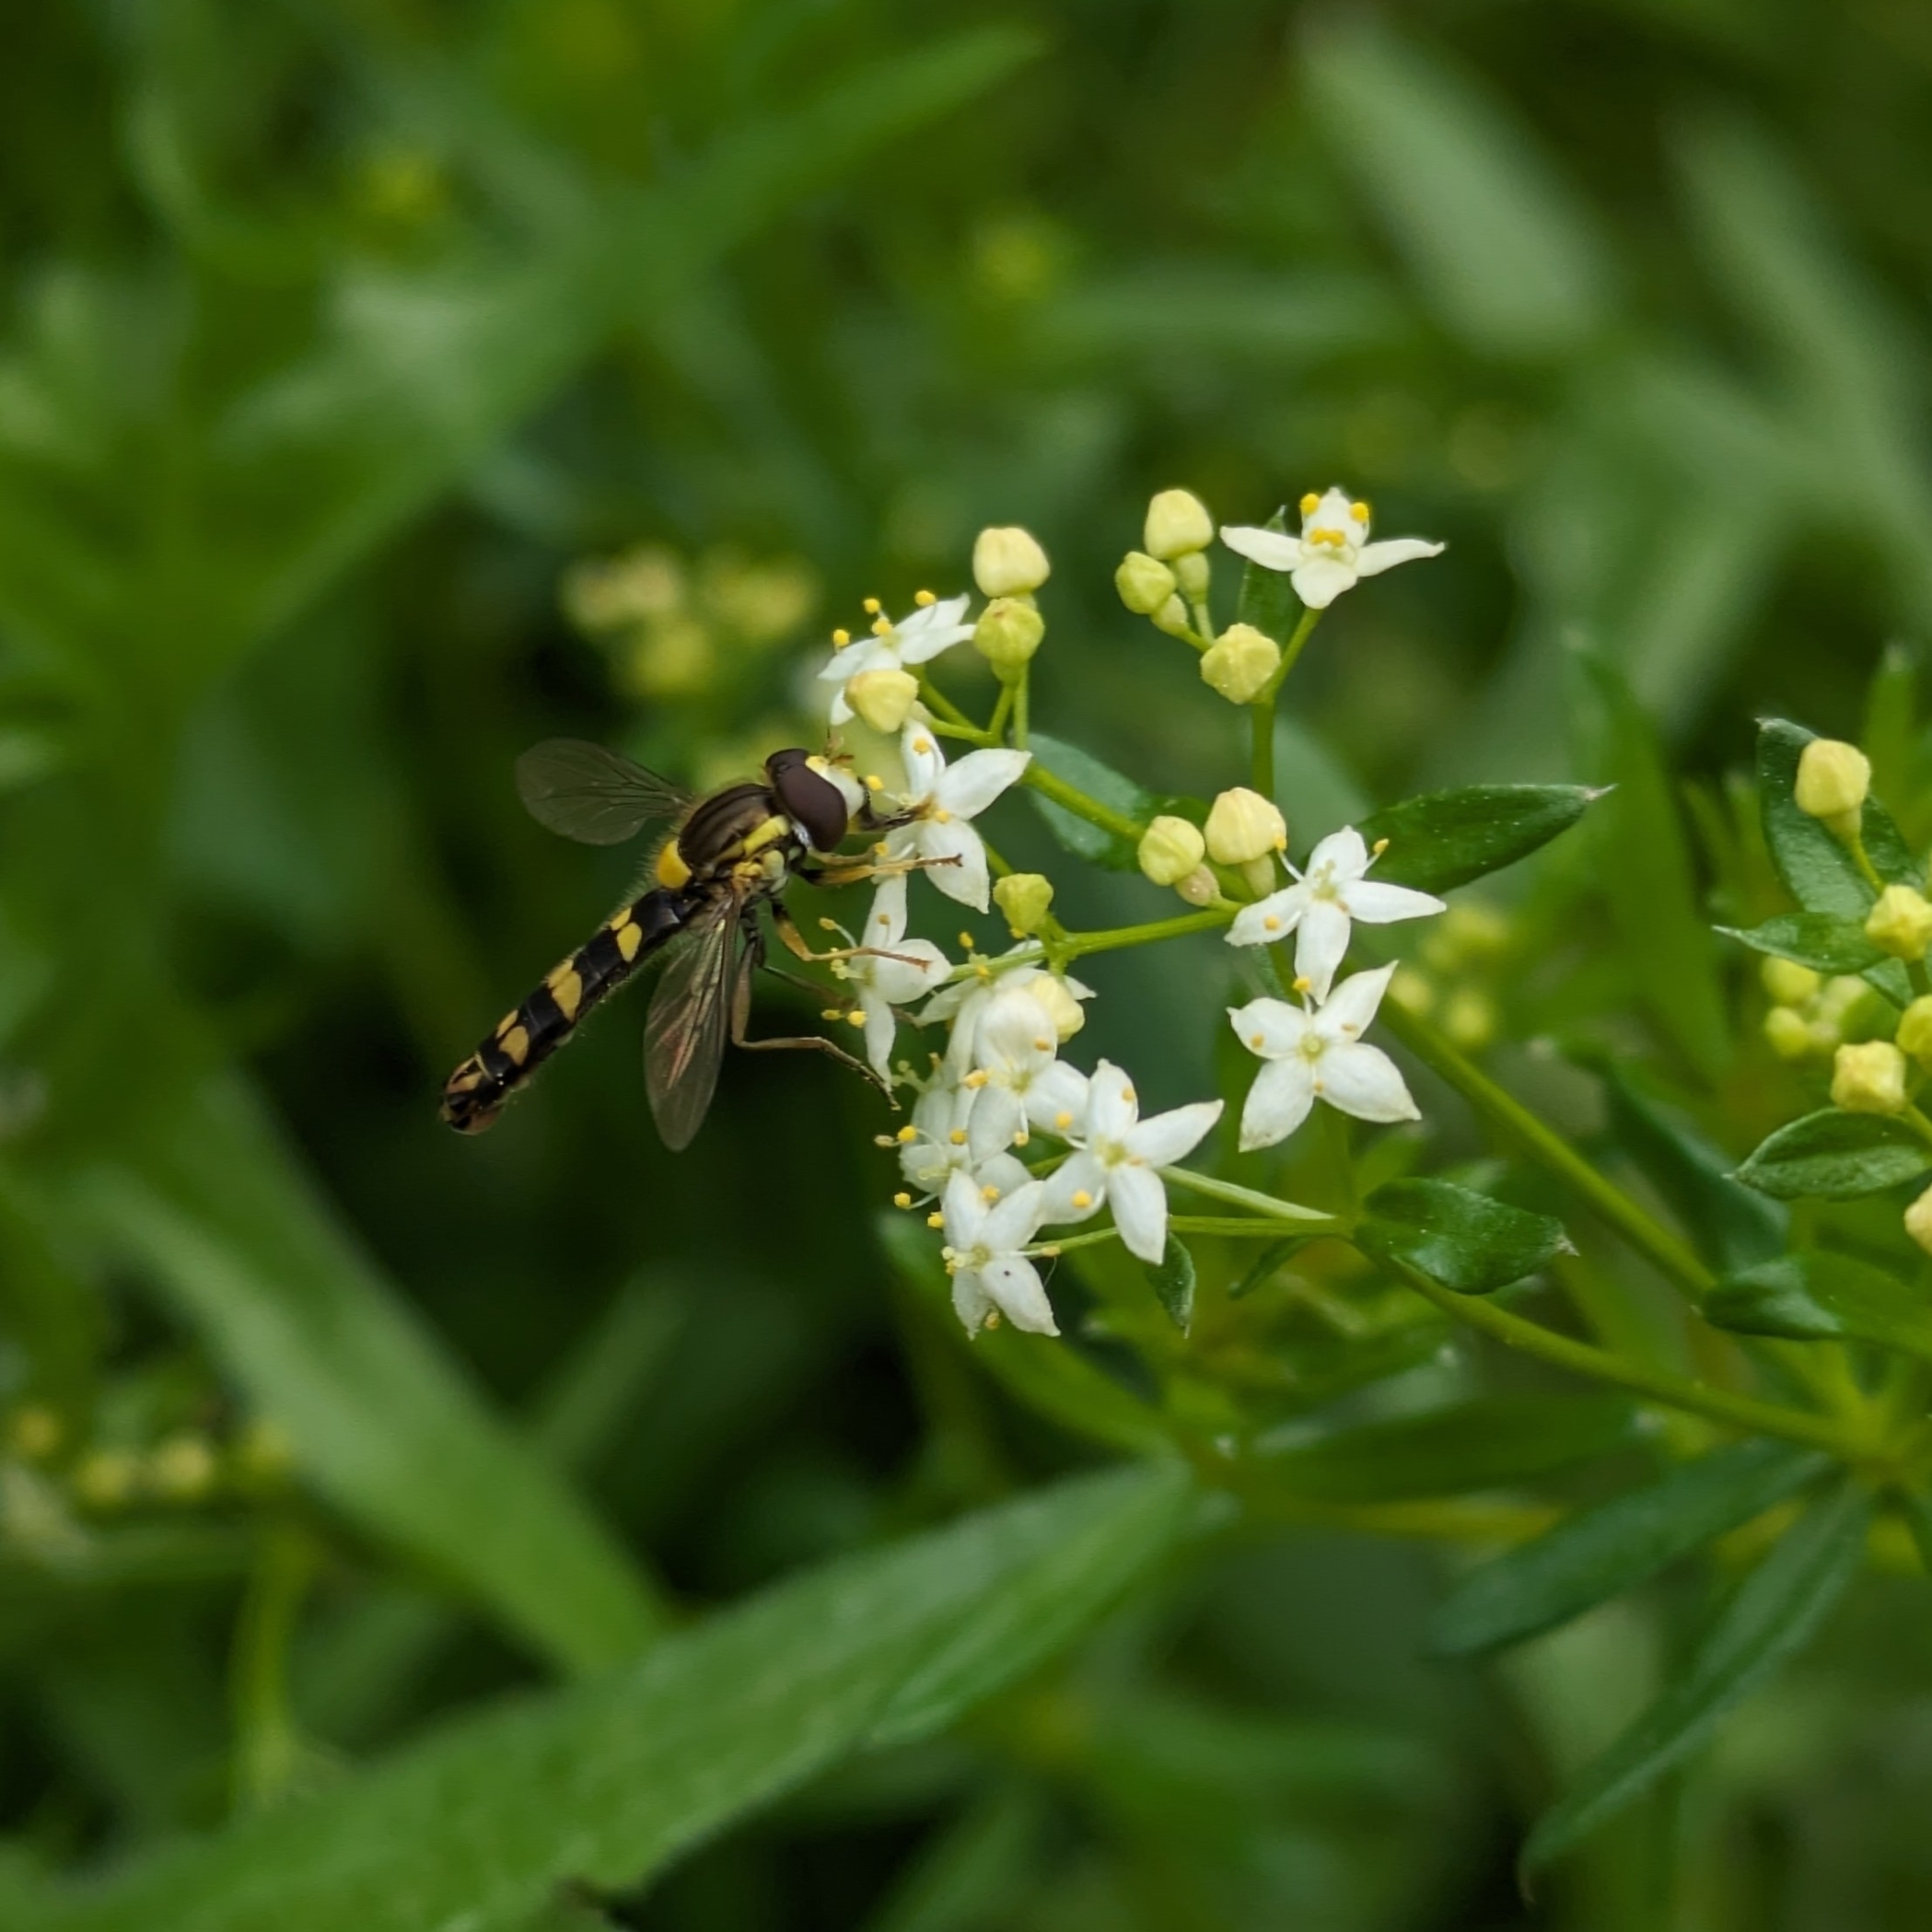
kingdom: Animalia
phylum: Arthropoda
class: Insecta
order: Diptera
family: Syrphidae
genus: Sphaerophoria
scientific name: Sphaerophoria scripta
